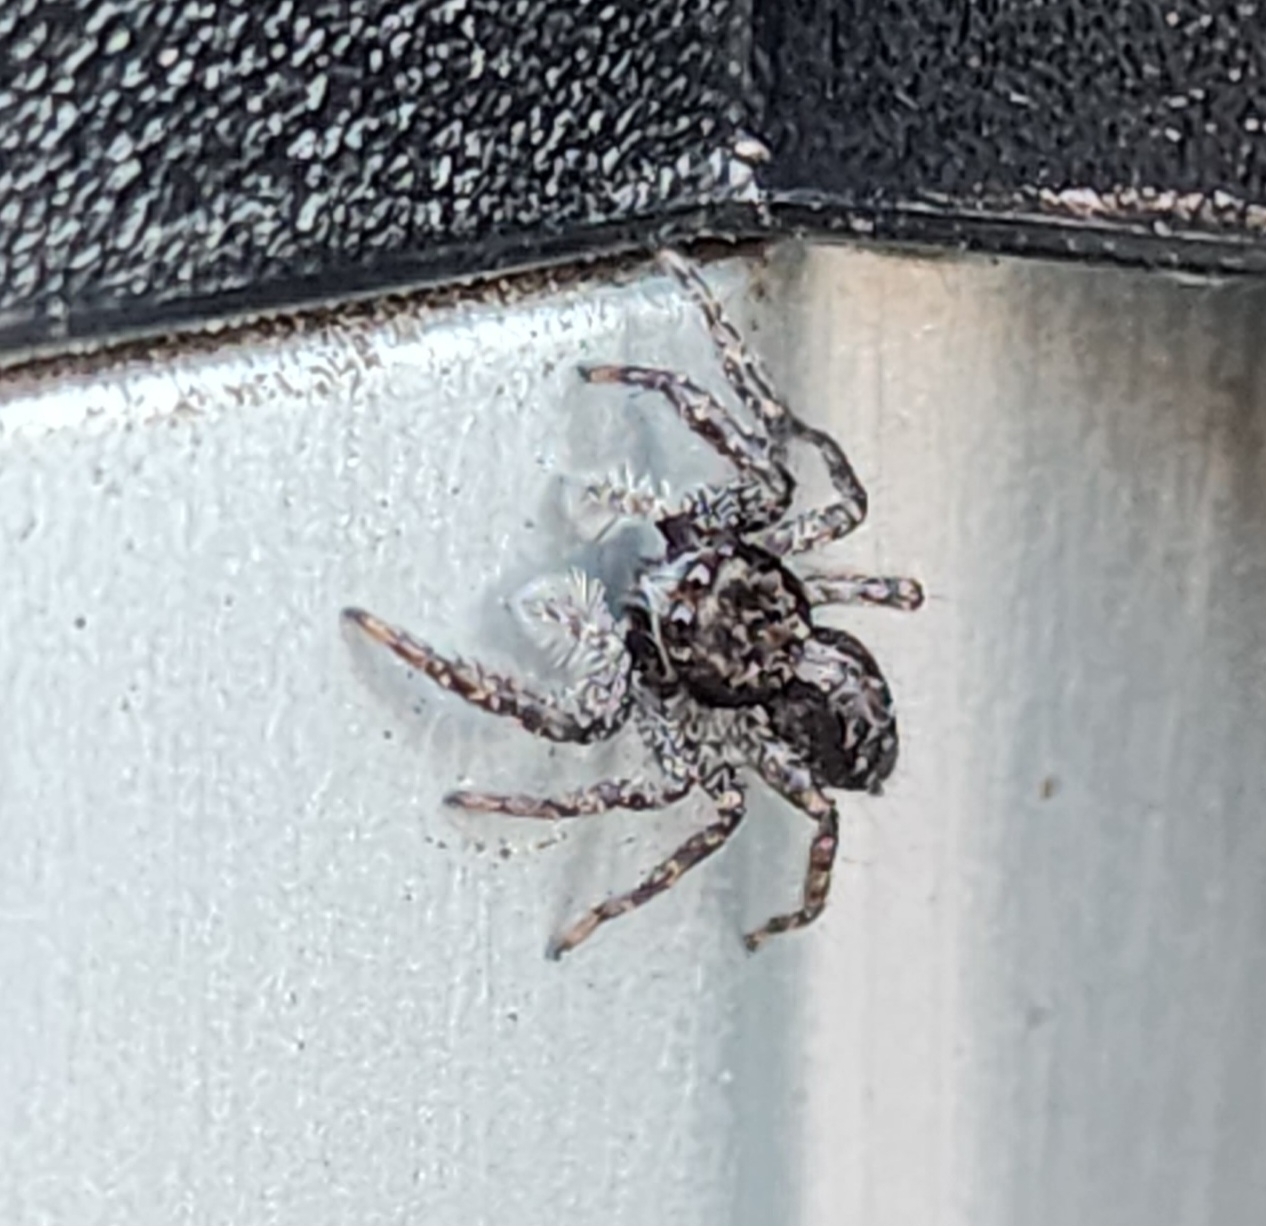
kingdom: Animalia
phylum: Arthropoda
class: Arachnida
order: Araneae
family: Salticidae
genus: Platycryptus
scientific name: Platycryptus californicus
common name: Jumping spiders
